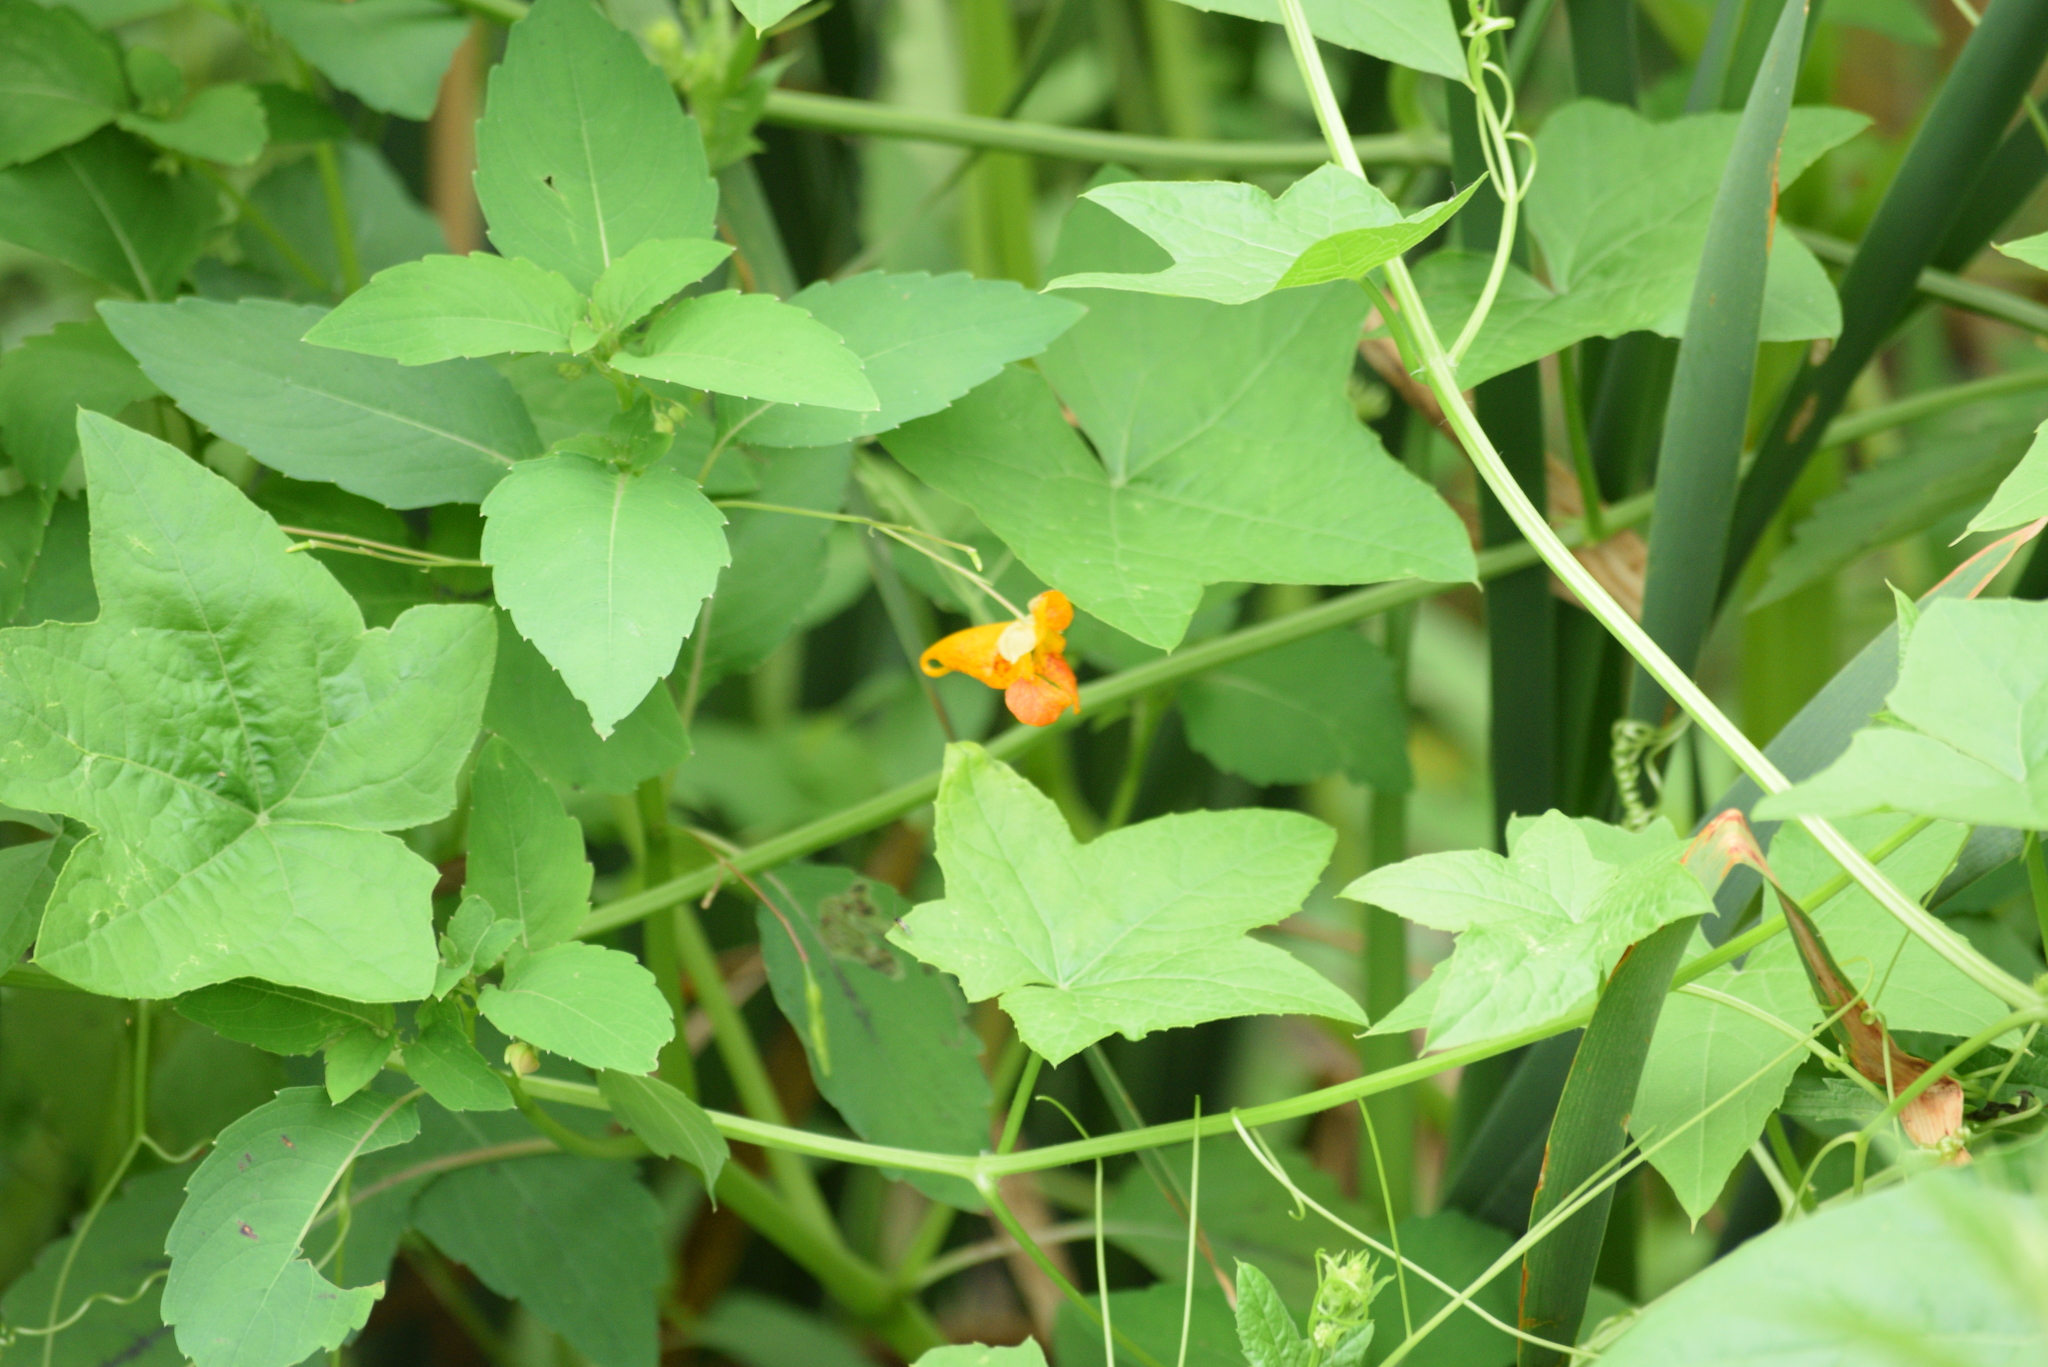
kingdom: Plantae
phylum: Tracheophyta
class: Magnoliopsida
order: Ericales
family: Balsaminaceae
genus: Impatiens
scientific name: Impatiens capensis
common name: Orange balsam
